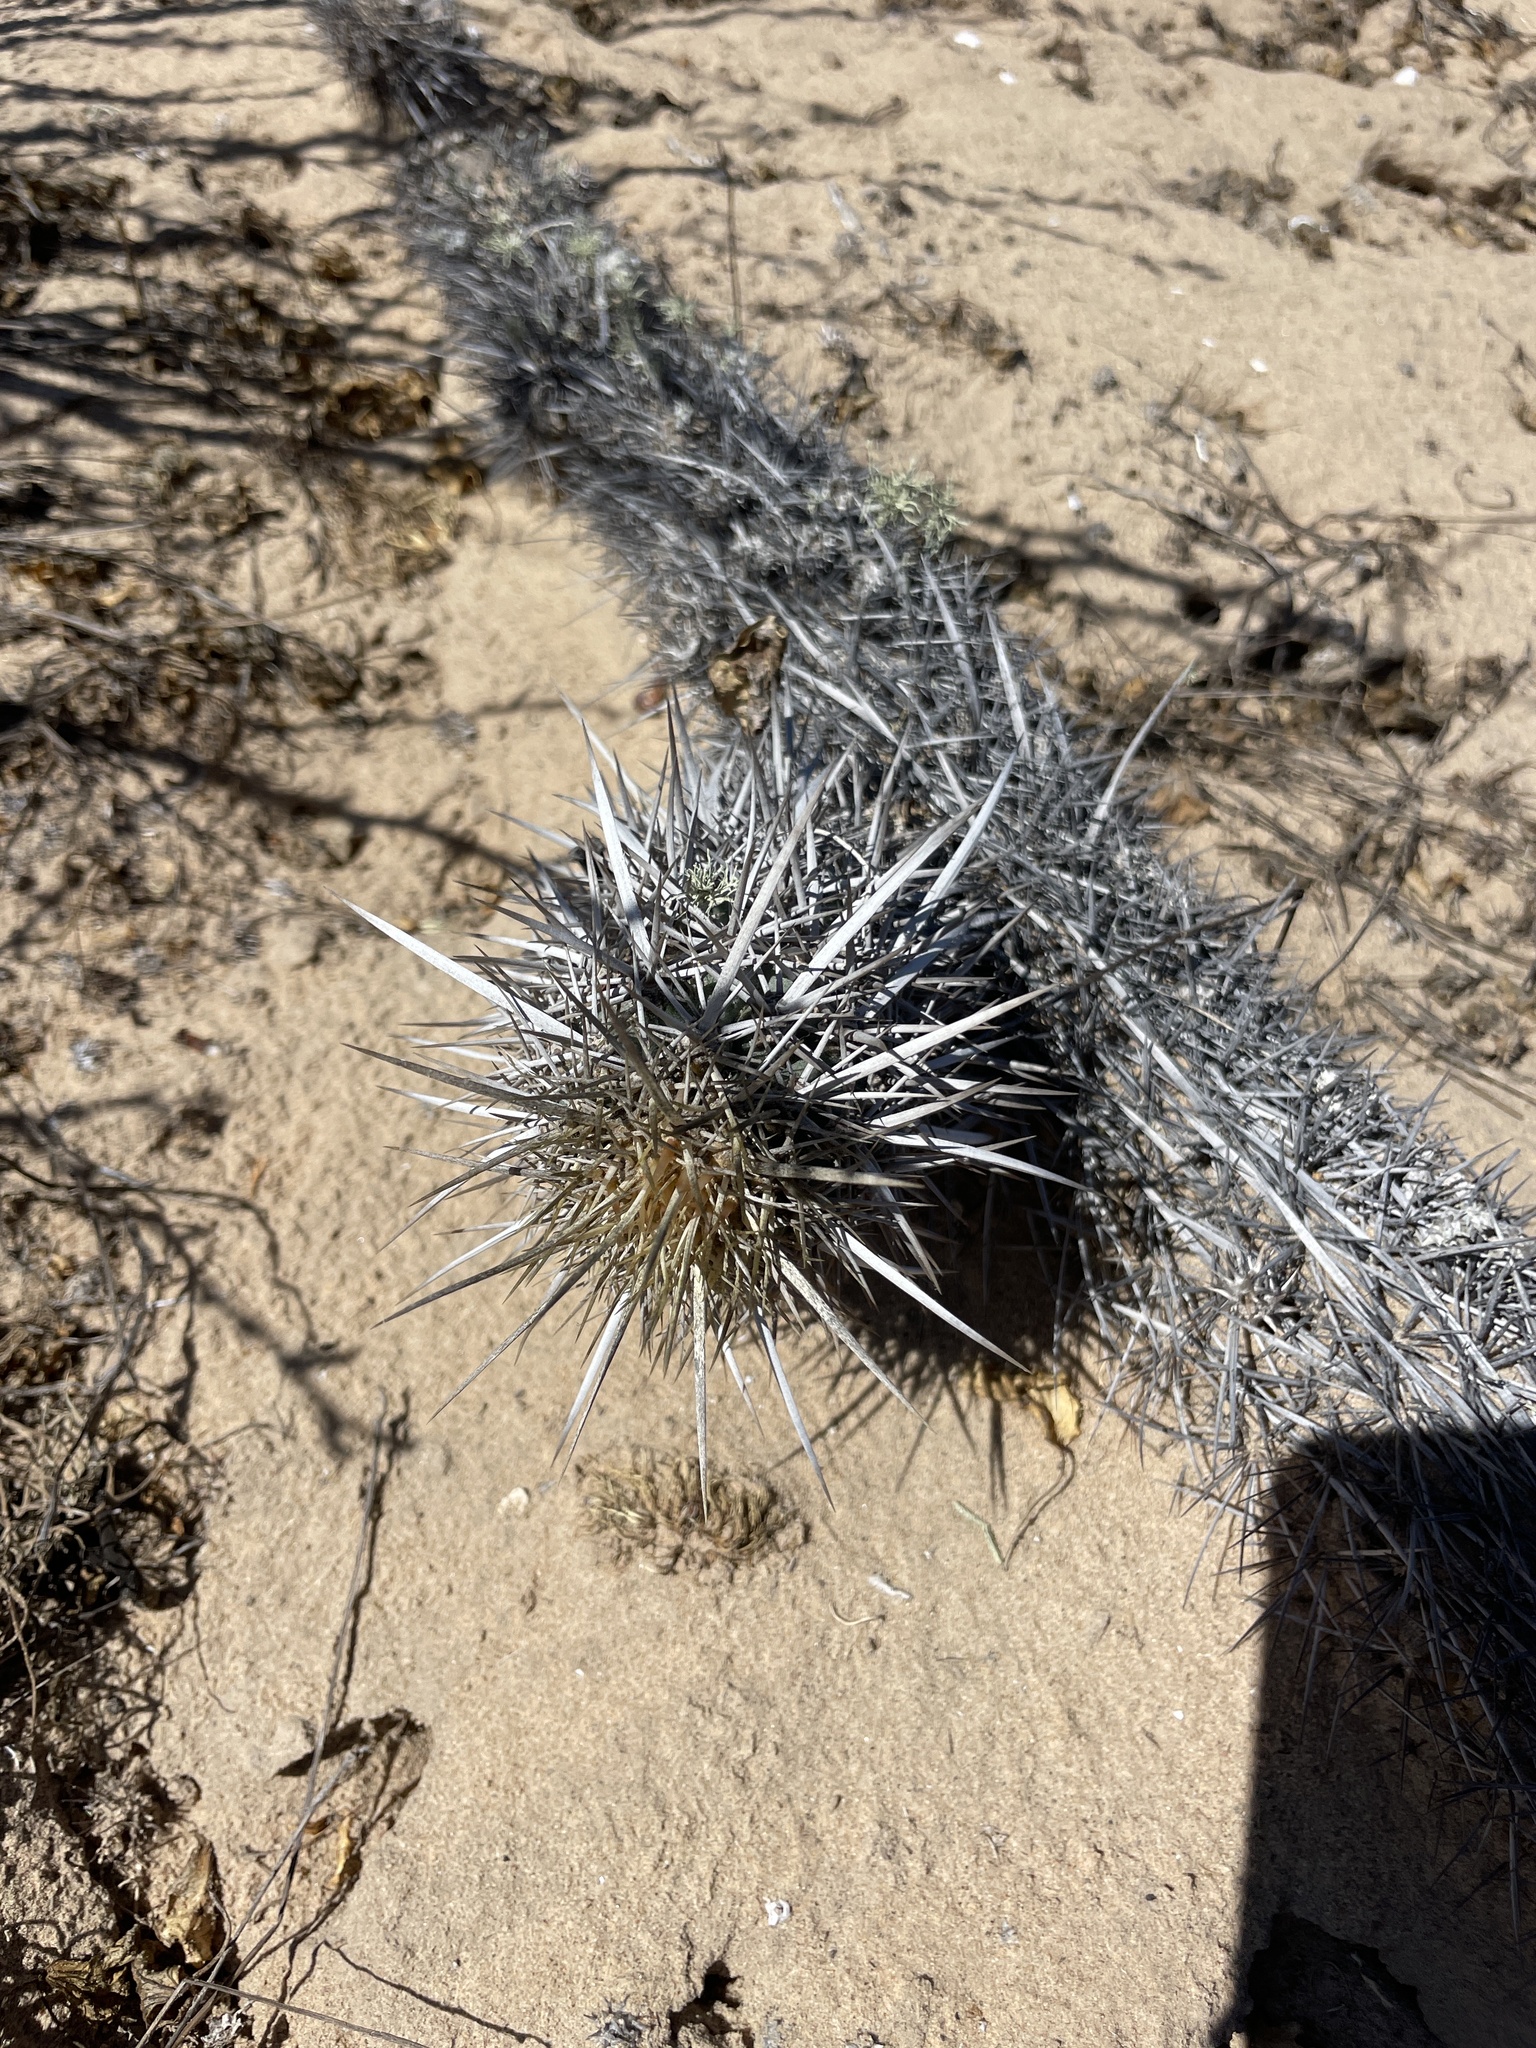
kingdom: Plantae
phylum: Tracheophyta
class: Magnoliopsida
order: Caryophyllales
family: Cactaceae
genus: Stenocereus
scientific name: Stenocereus eruca
